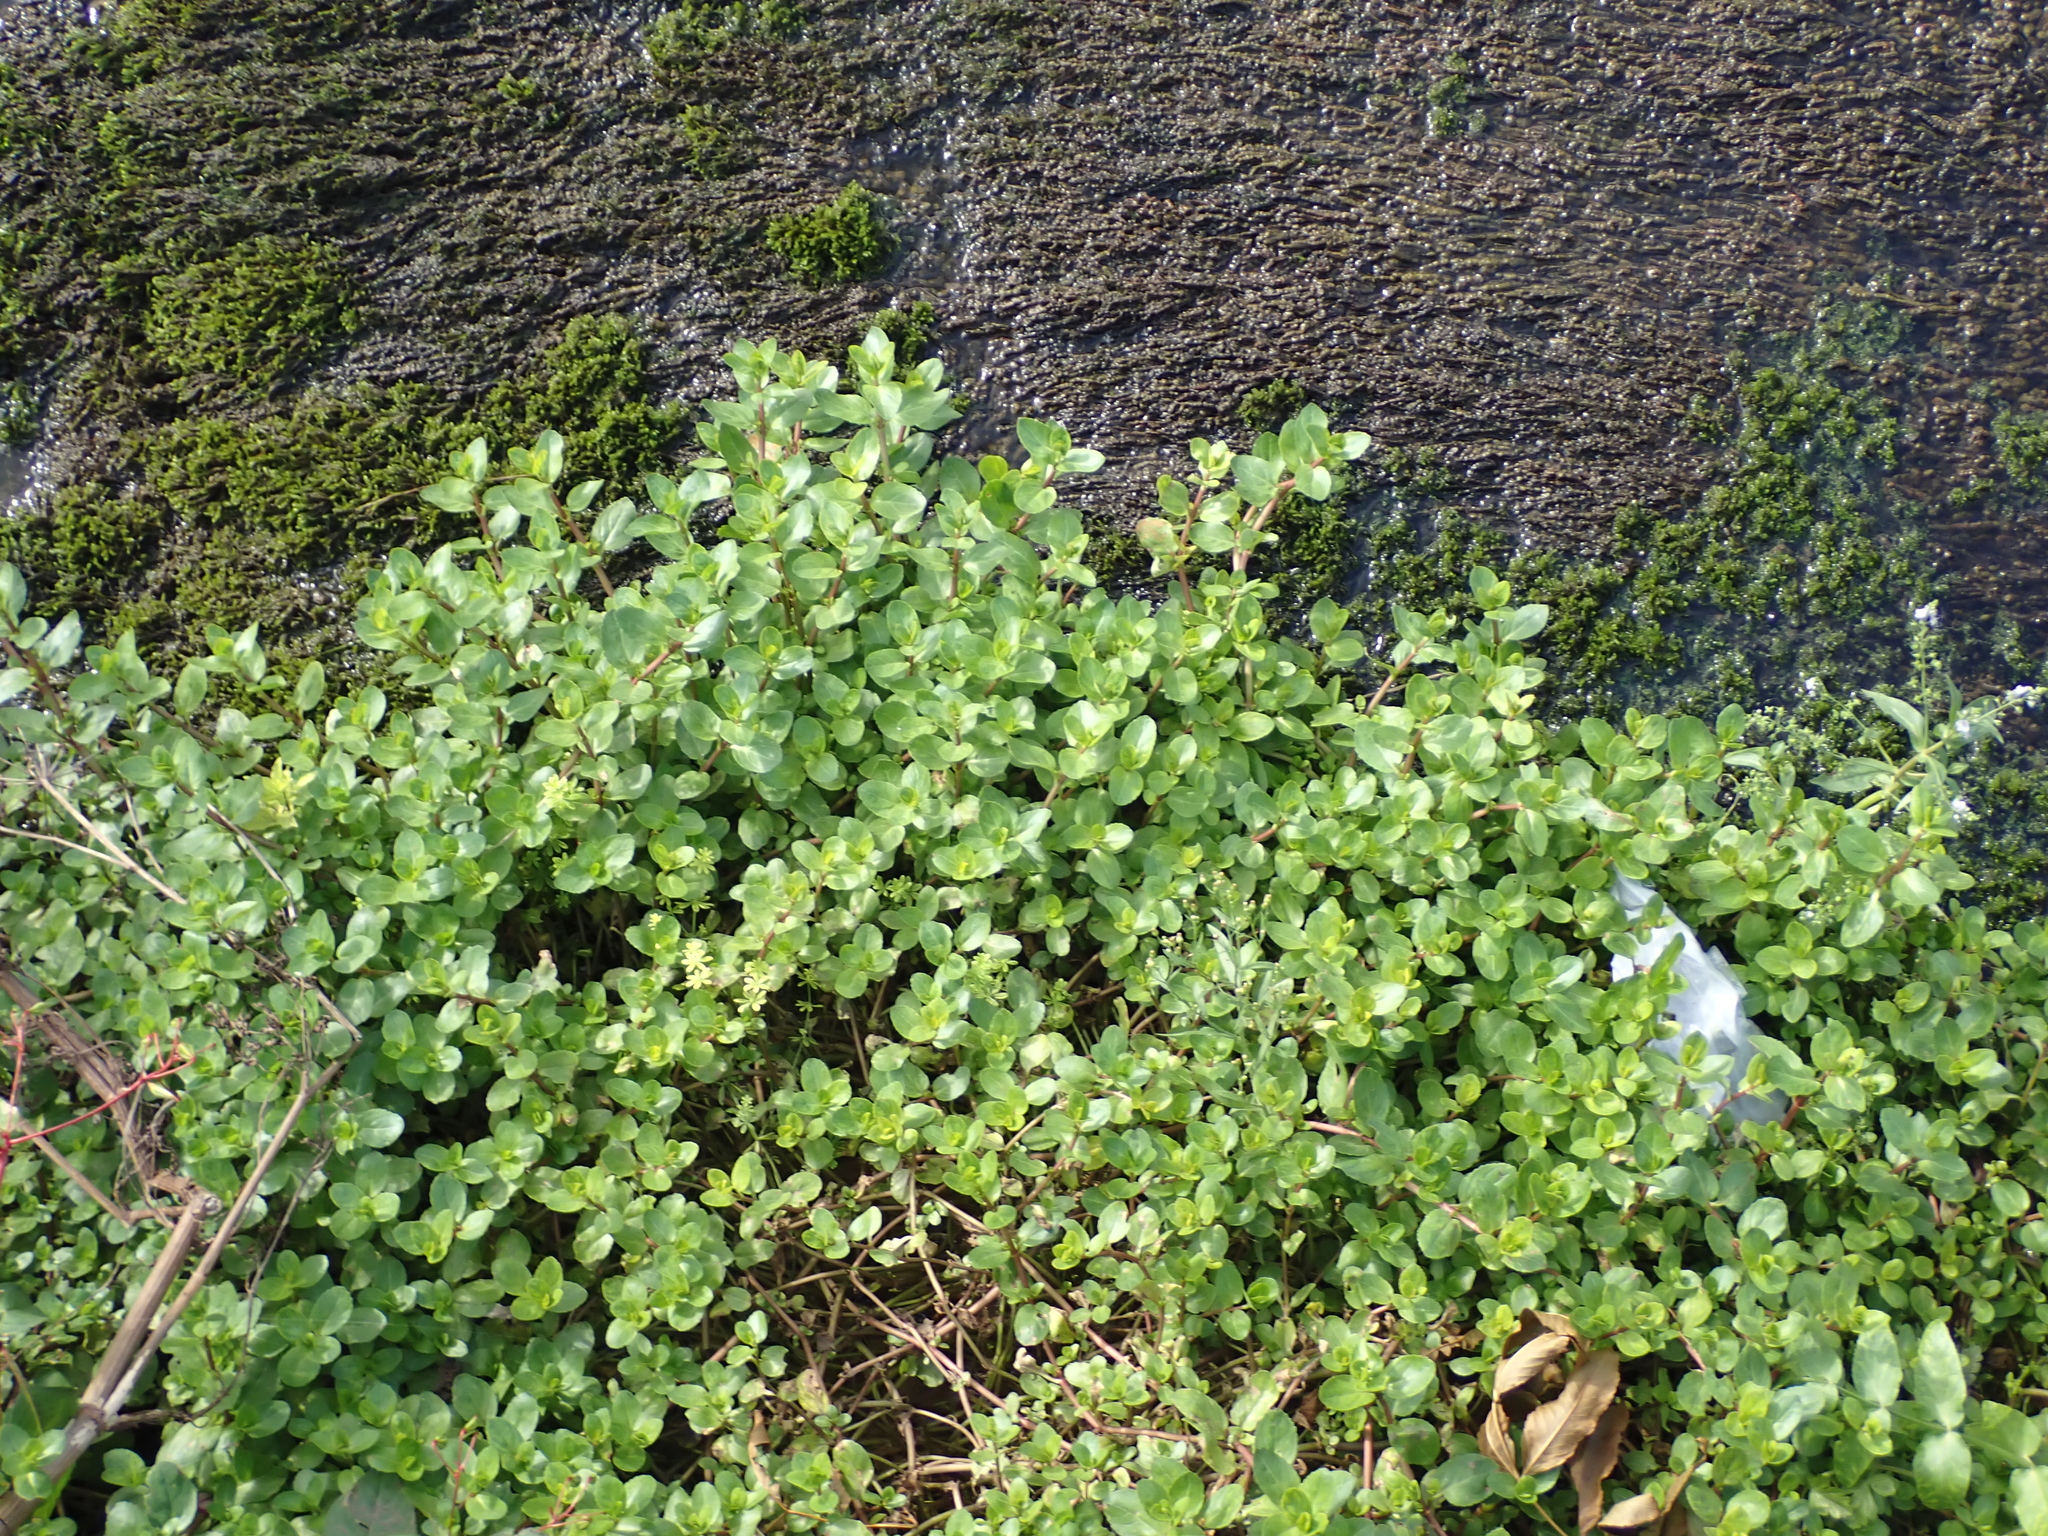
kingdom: Plantae
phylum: Tracheophyta
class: Magnoliopsida
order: Lamiales
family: Plantaginaceae
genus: Veronica
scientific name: Veronica beccabunga
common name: Brooklime
